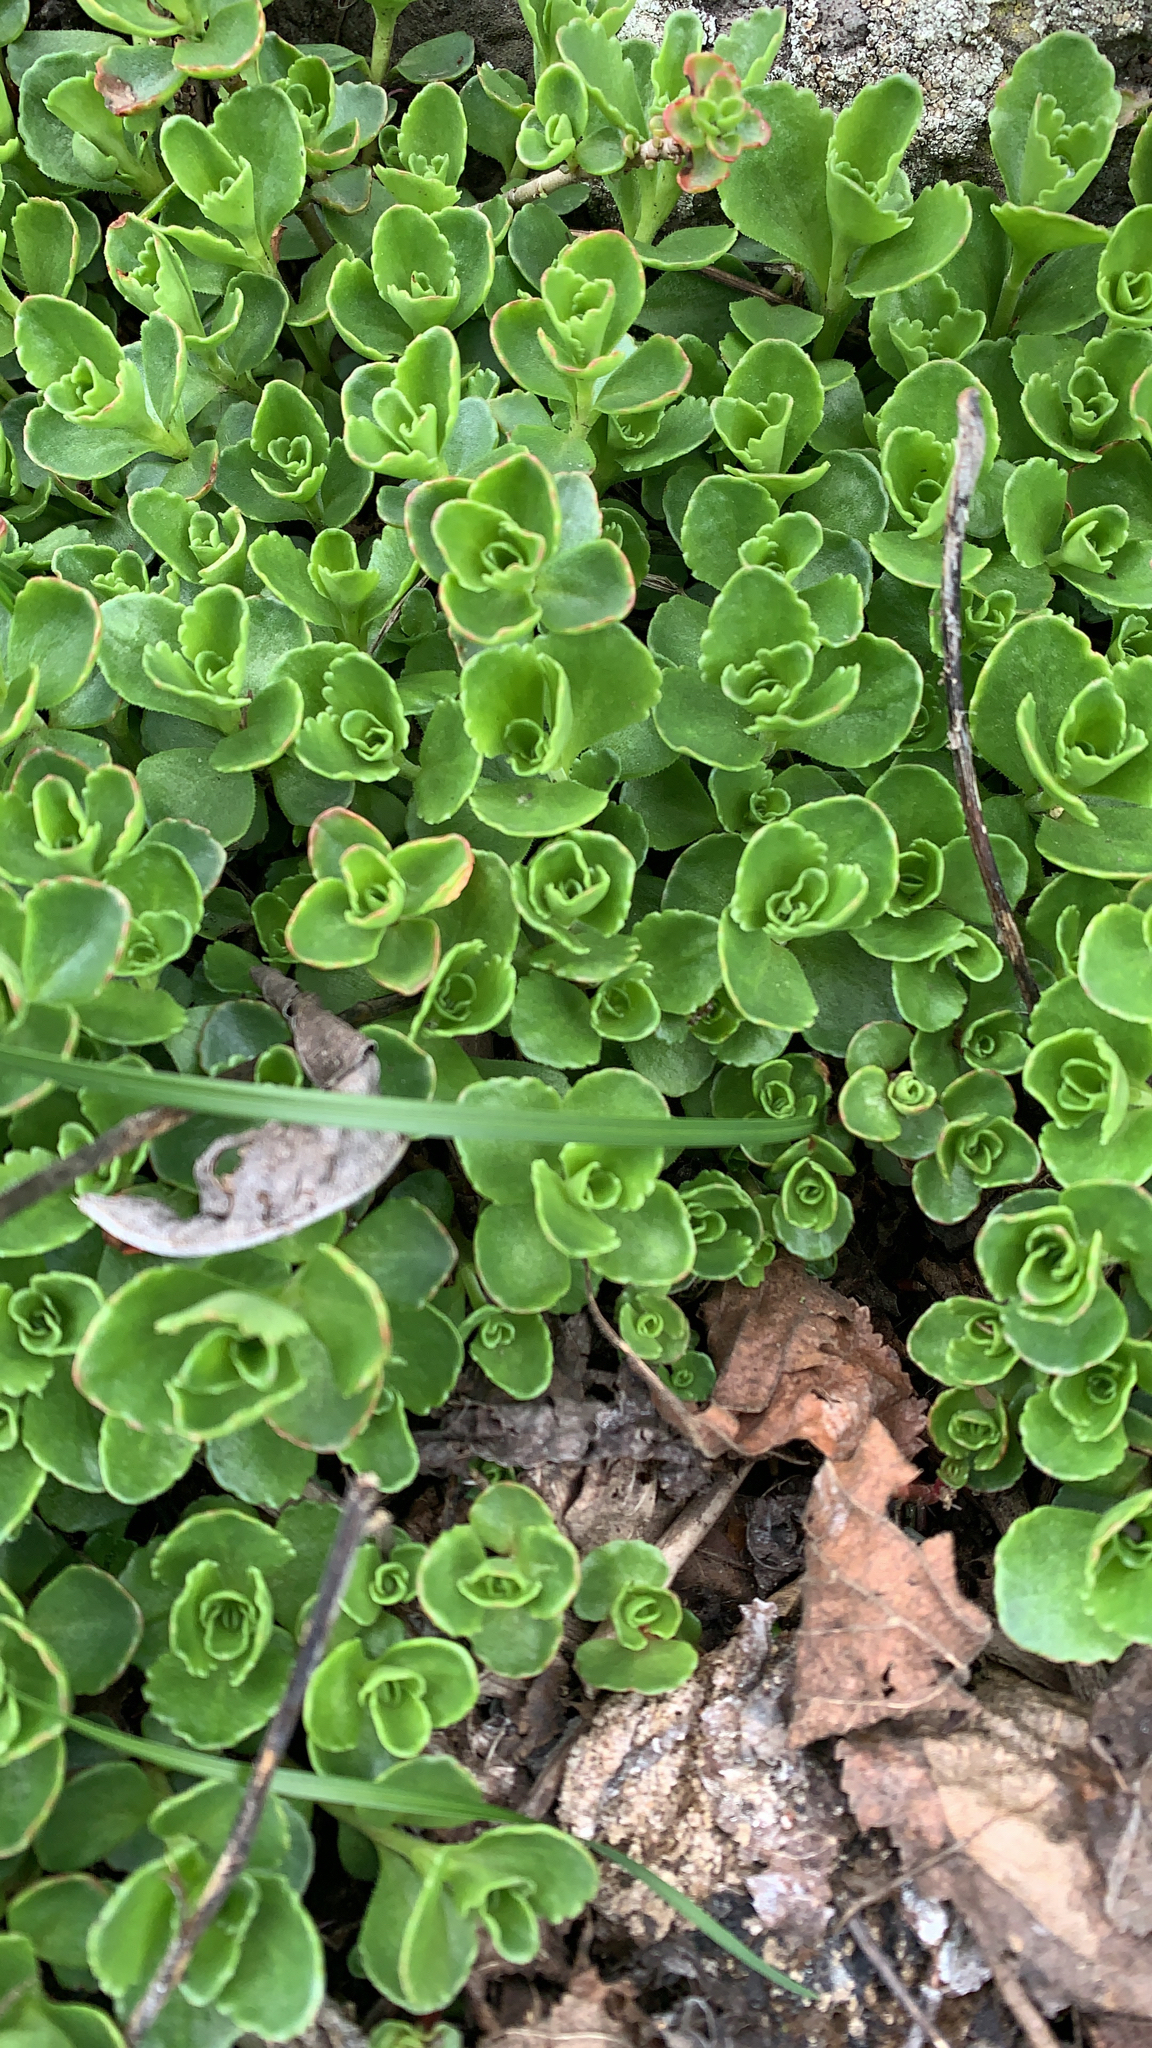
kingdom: Plantae
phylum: Tracheophyta
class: Magnoliopsida
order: Saxifragales
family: Crassulaceae
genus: Phedimus
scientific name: Phedimus spurius
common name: Caucasian stonecrop
